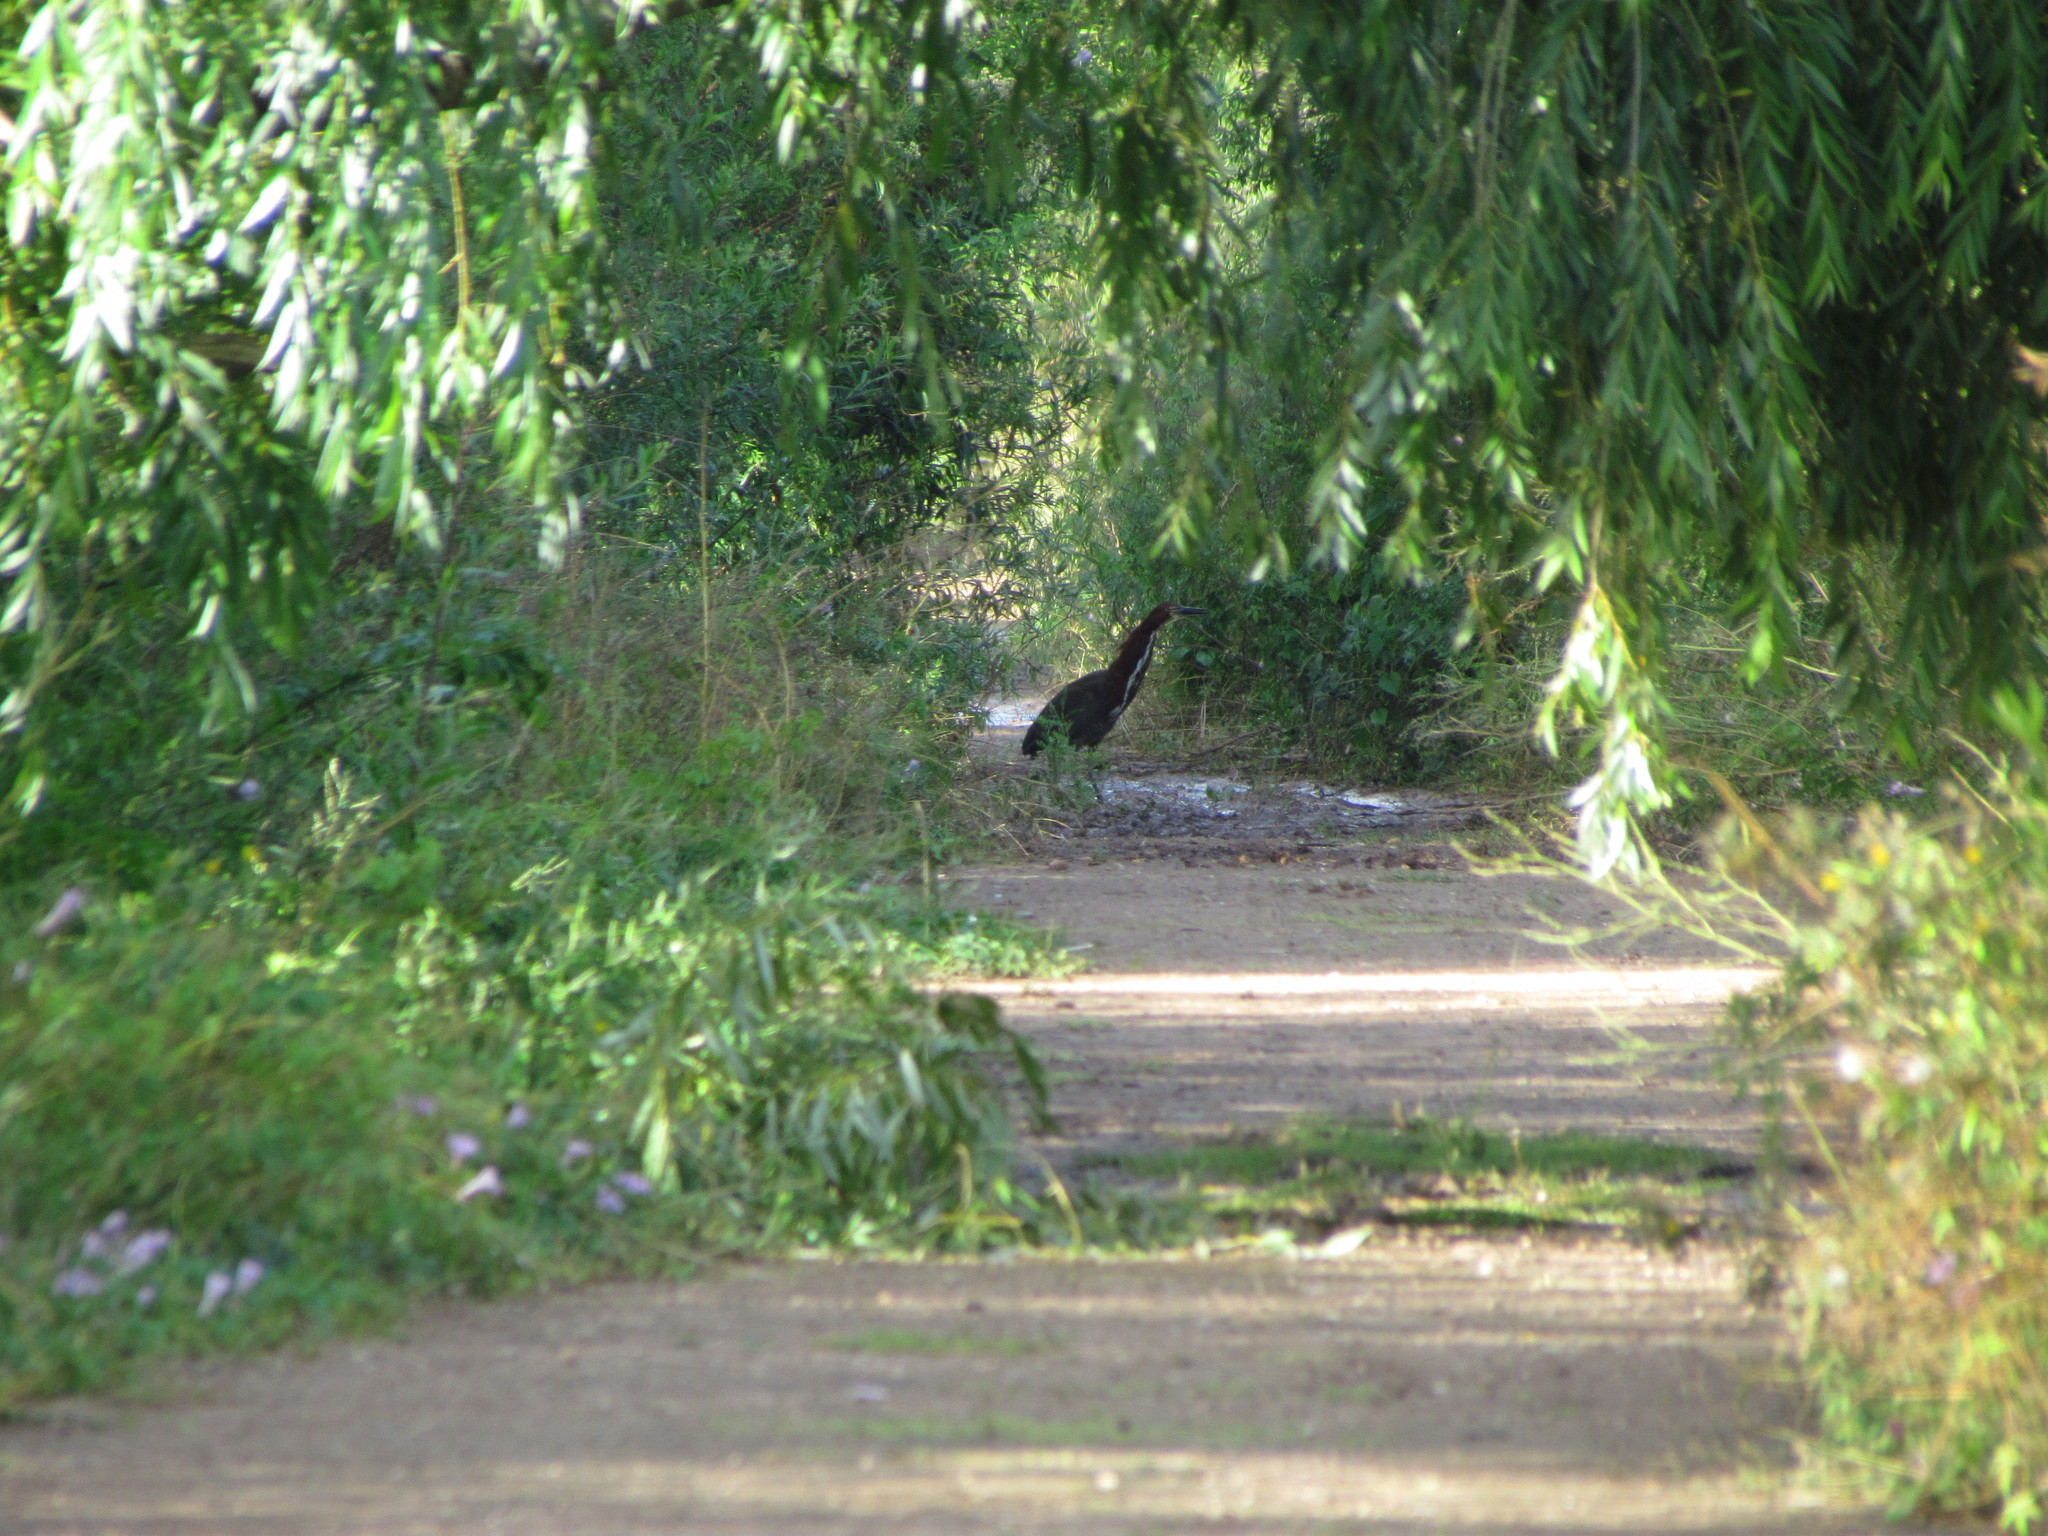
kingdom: Animalia
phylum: Chordata
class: Aves
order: Pelecaniformes
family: Ardeidae
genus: Tigrisoma
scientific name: Tigrisoma lineatum
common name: Rufescent tiger-heron
